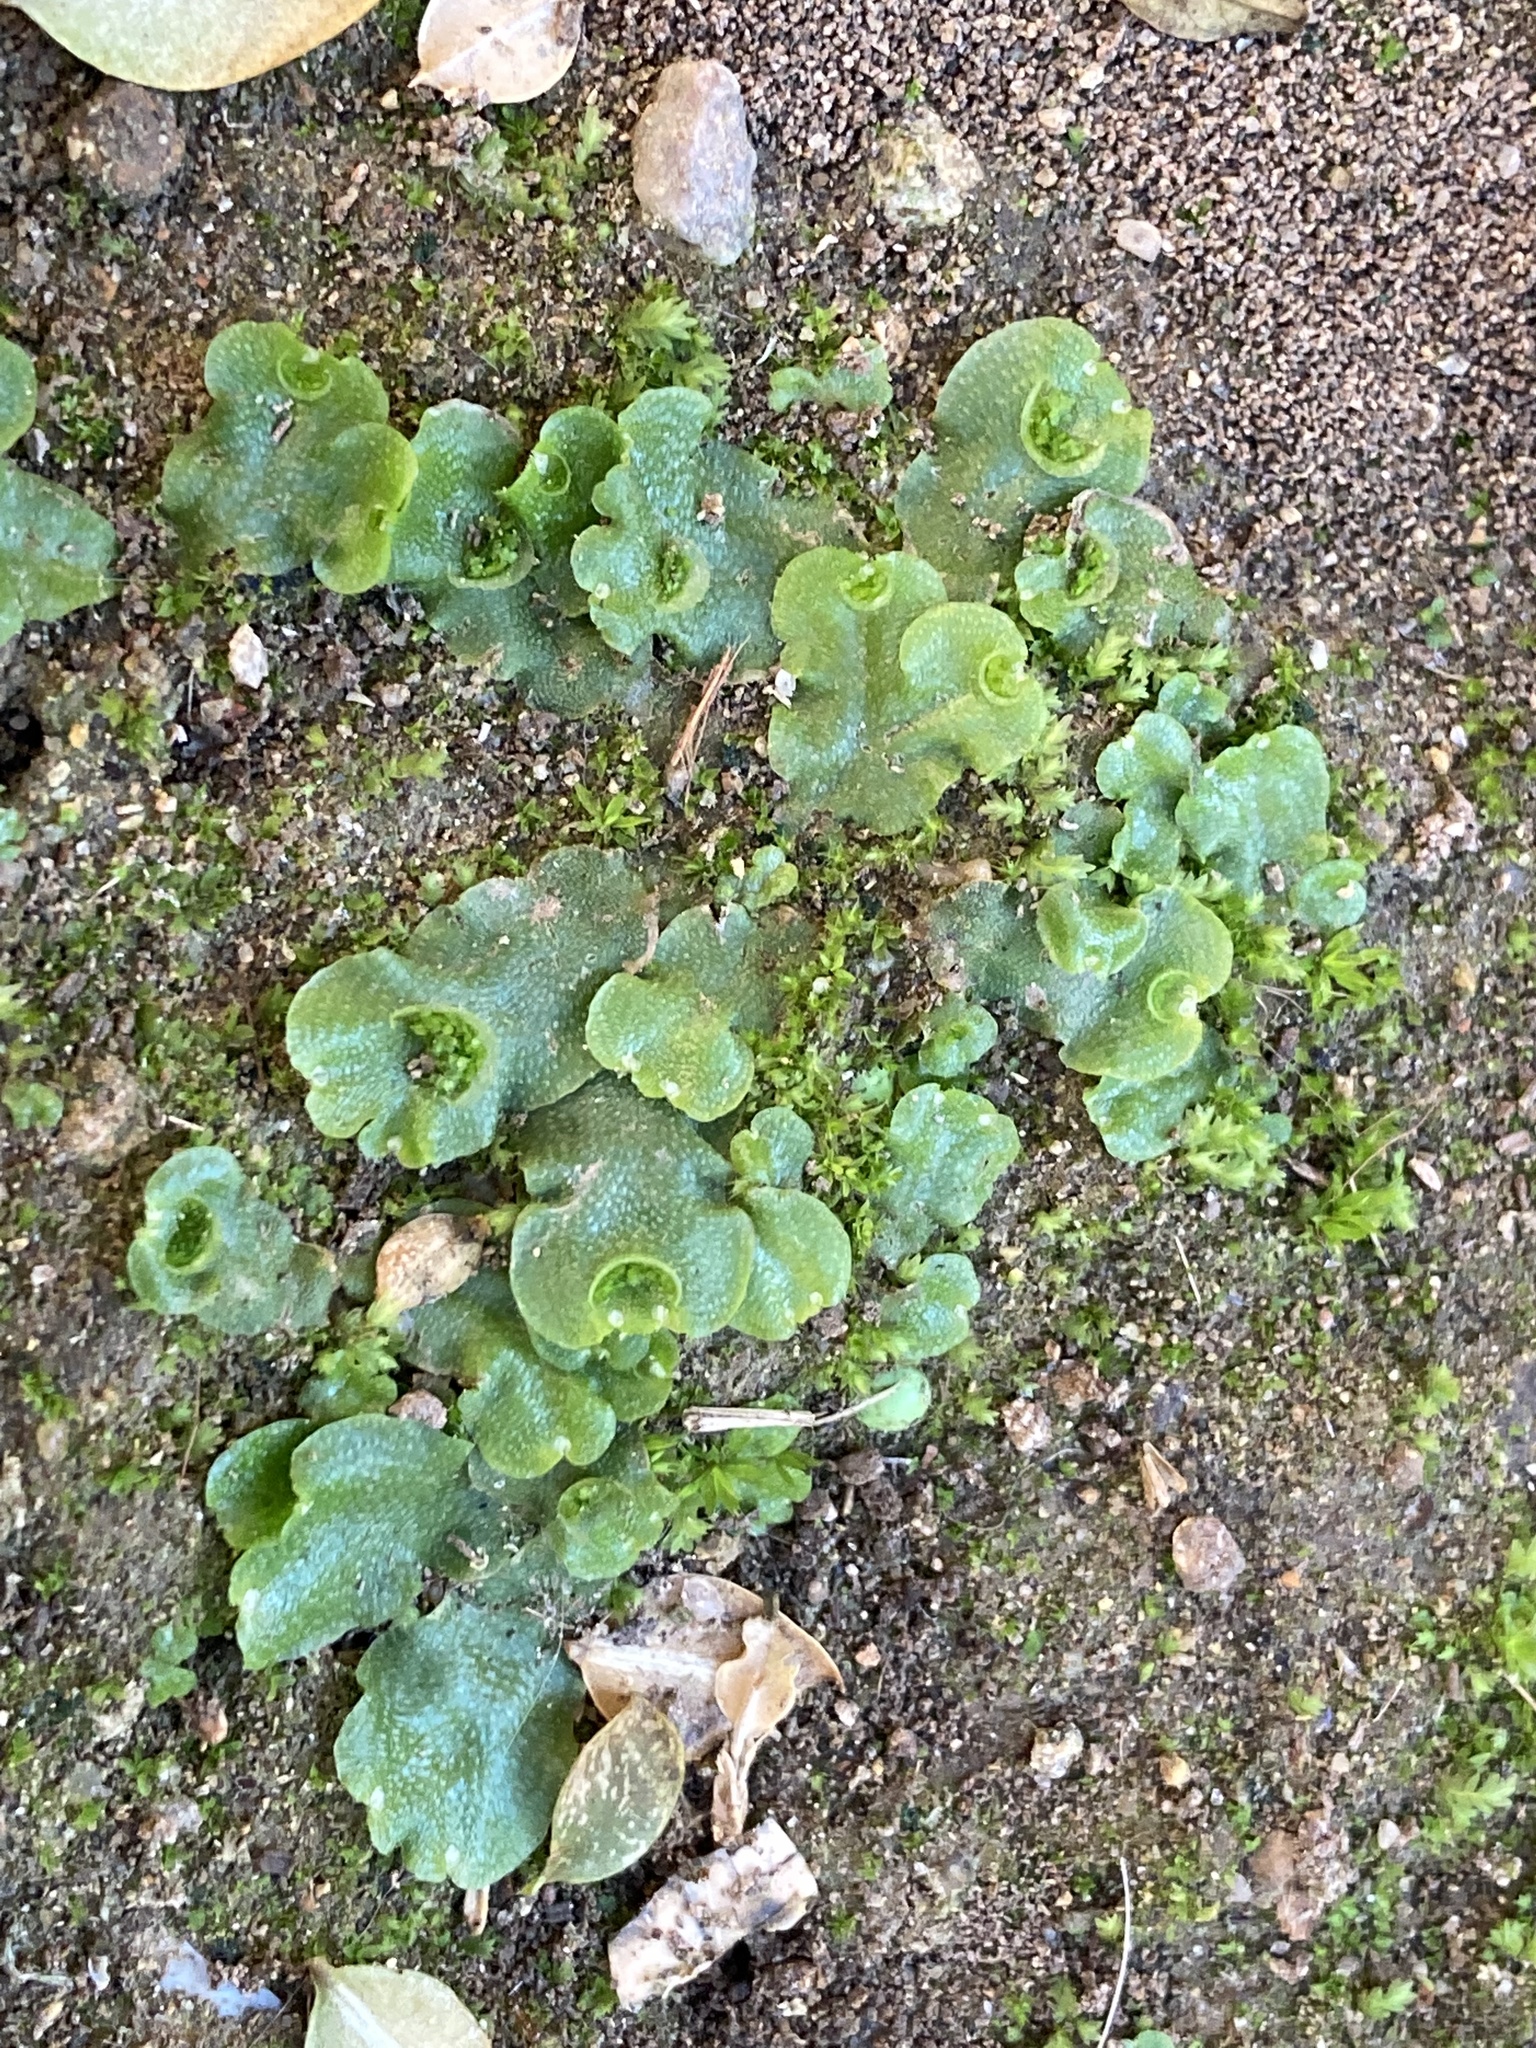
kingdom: Plantae
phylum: Marchantiophyta
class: Marchantiopsida
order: Lunulariales
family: Lunulariaceae
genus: Lunularia
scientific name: Lunularia cruciata
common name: Crescent-cup liverwort
